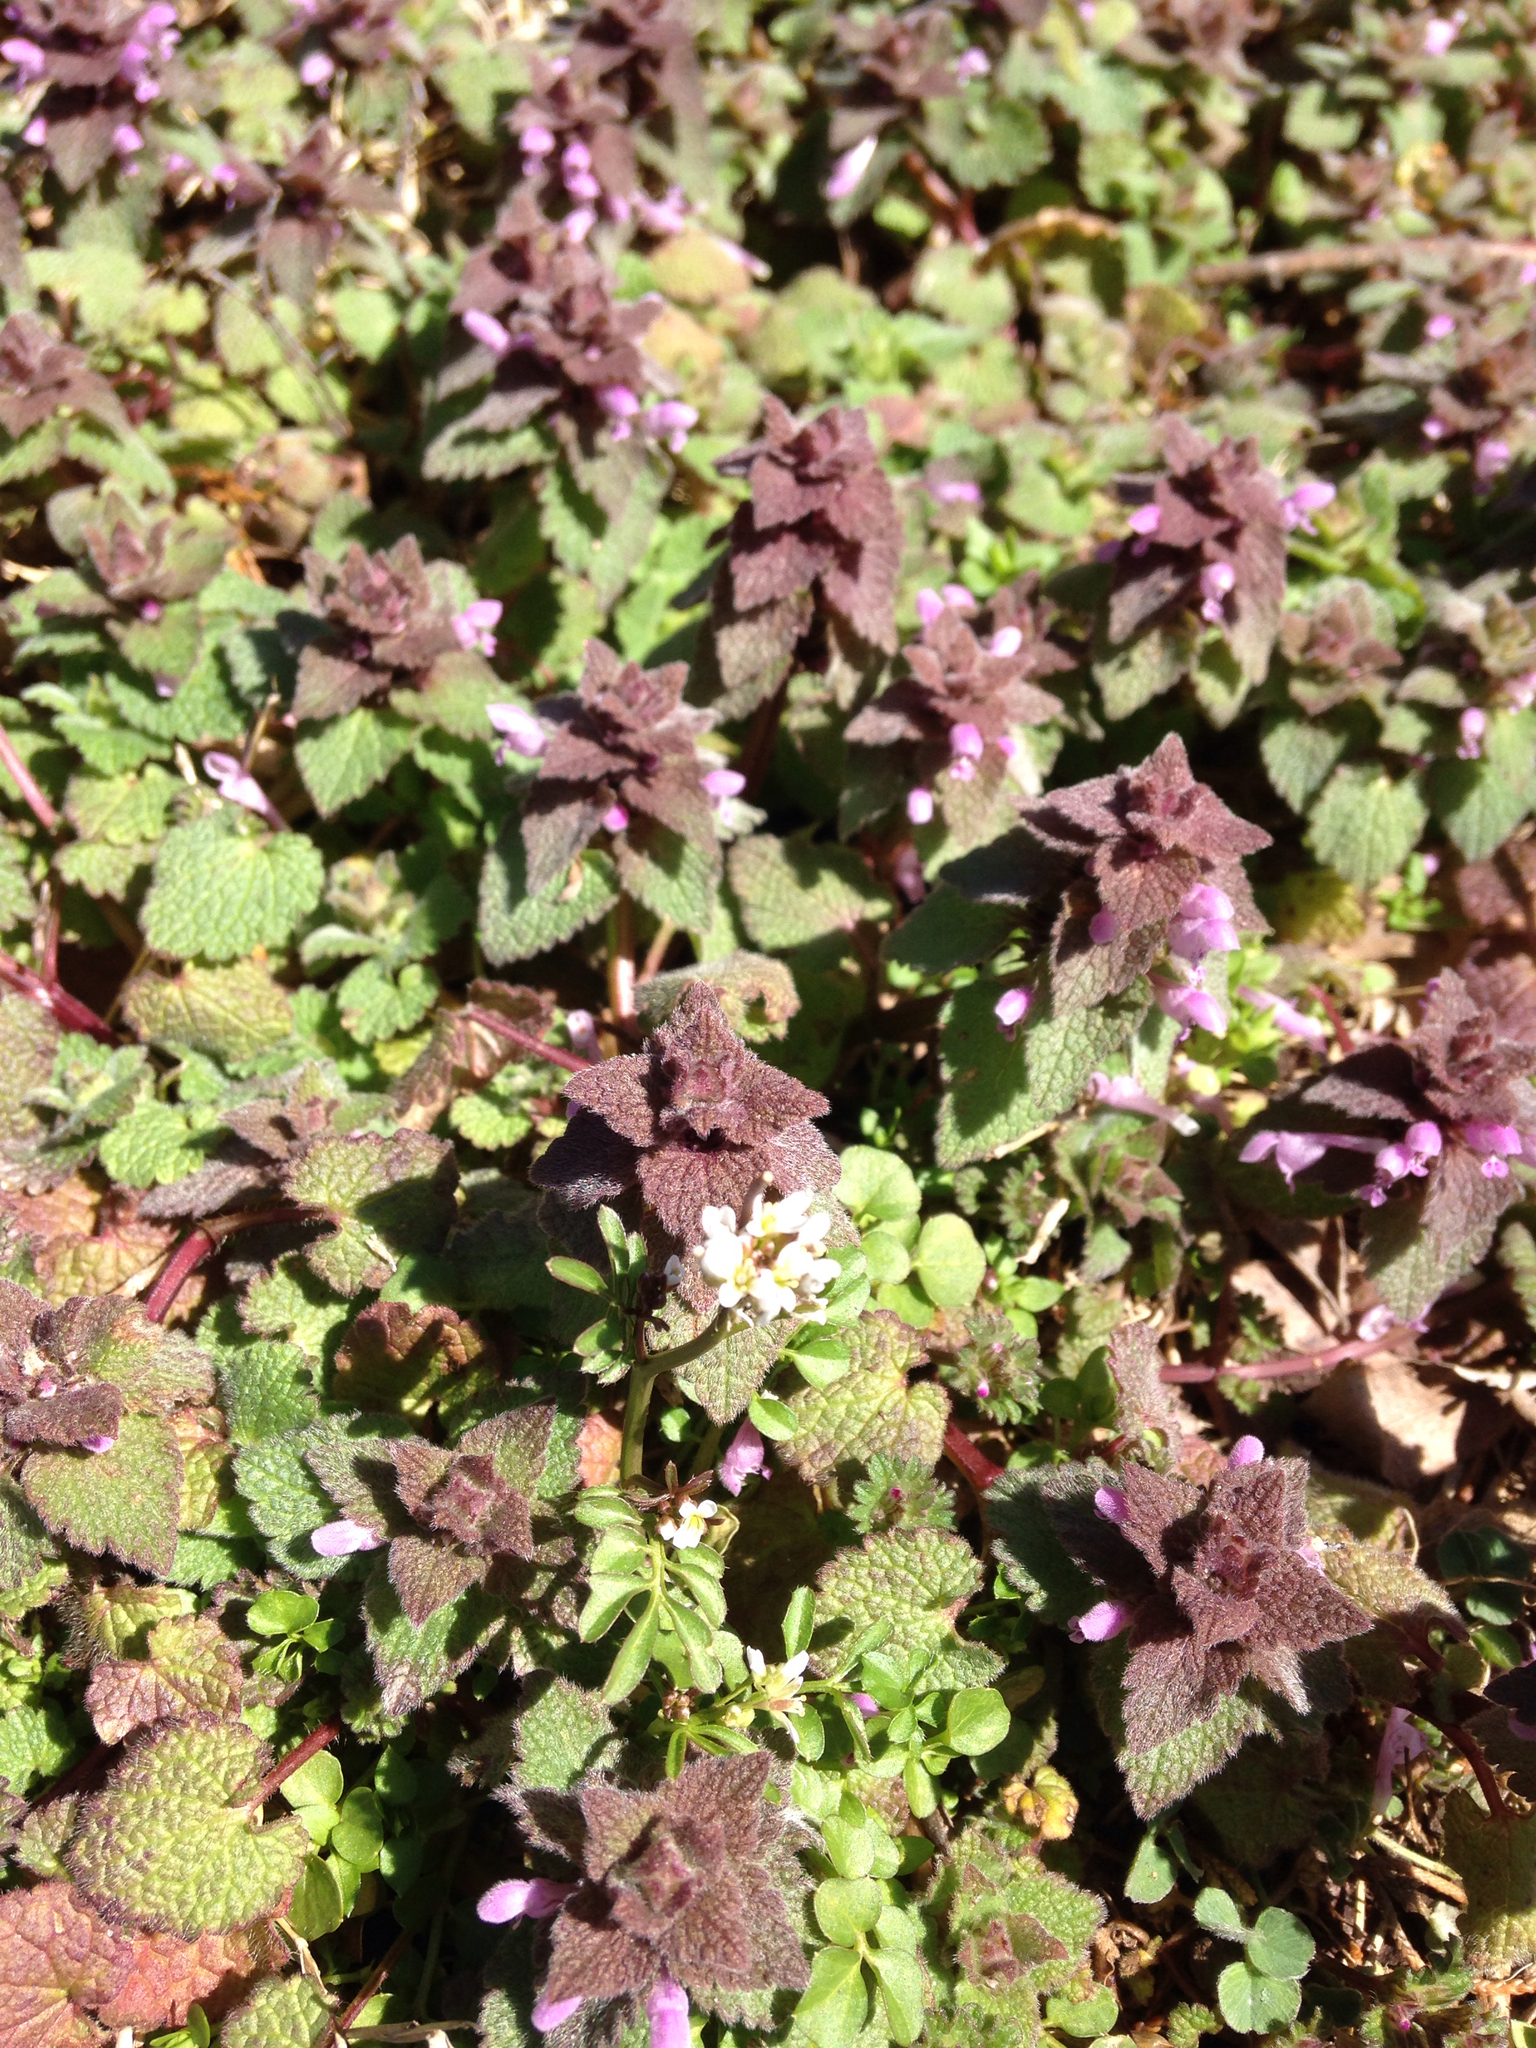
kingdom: Plantae
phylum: Tracheophyta
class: Magnoliopsida
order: Lamiales
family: Lamiaceae
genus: Lamium
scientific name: Lamium purpureum
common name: Red dead-nettle
